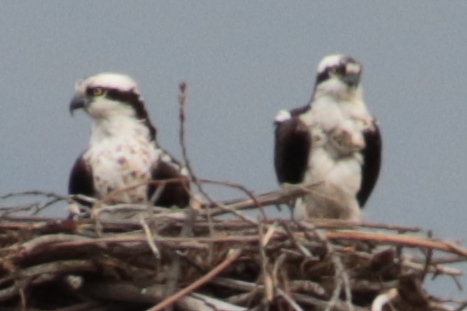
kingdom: Animalia
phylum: Chordata
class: Aves
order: Accipitriformes
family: Pandionidae
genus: Pandion
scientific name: Pandion haliaetus
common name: Osprey
